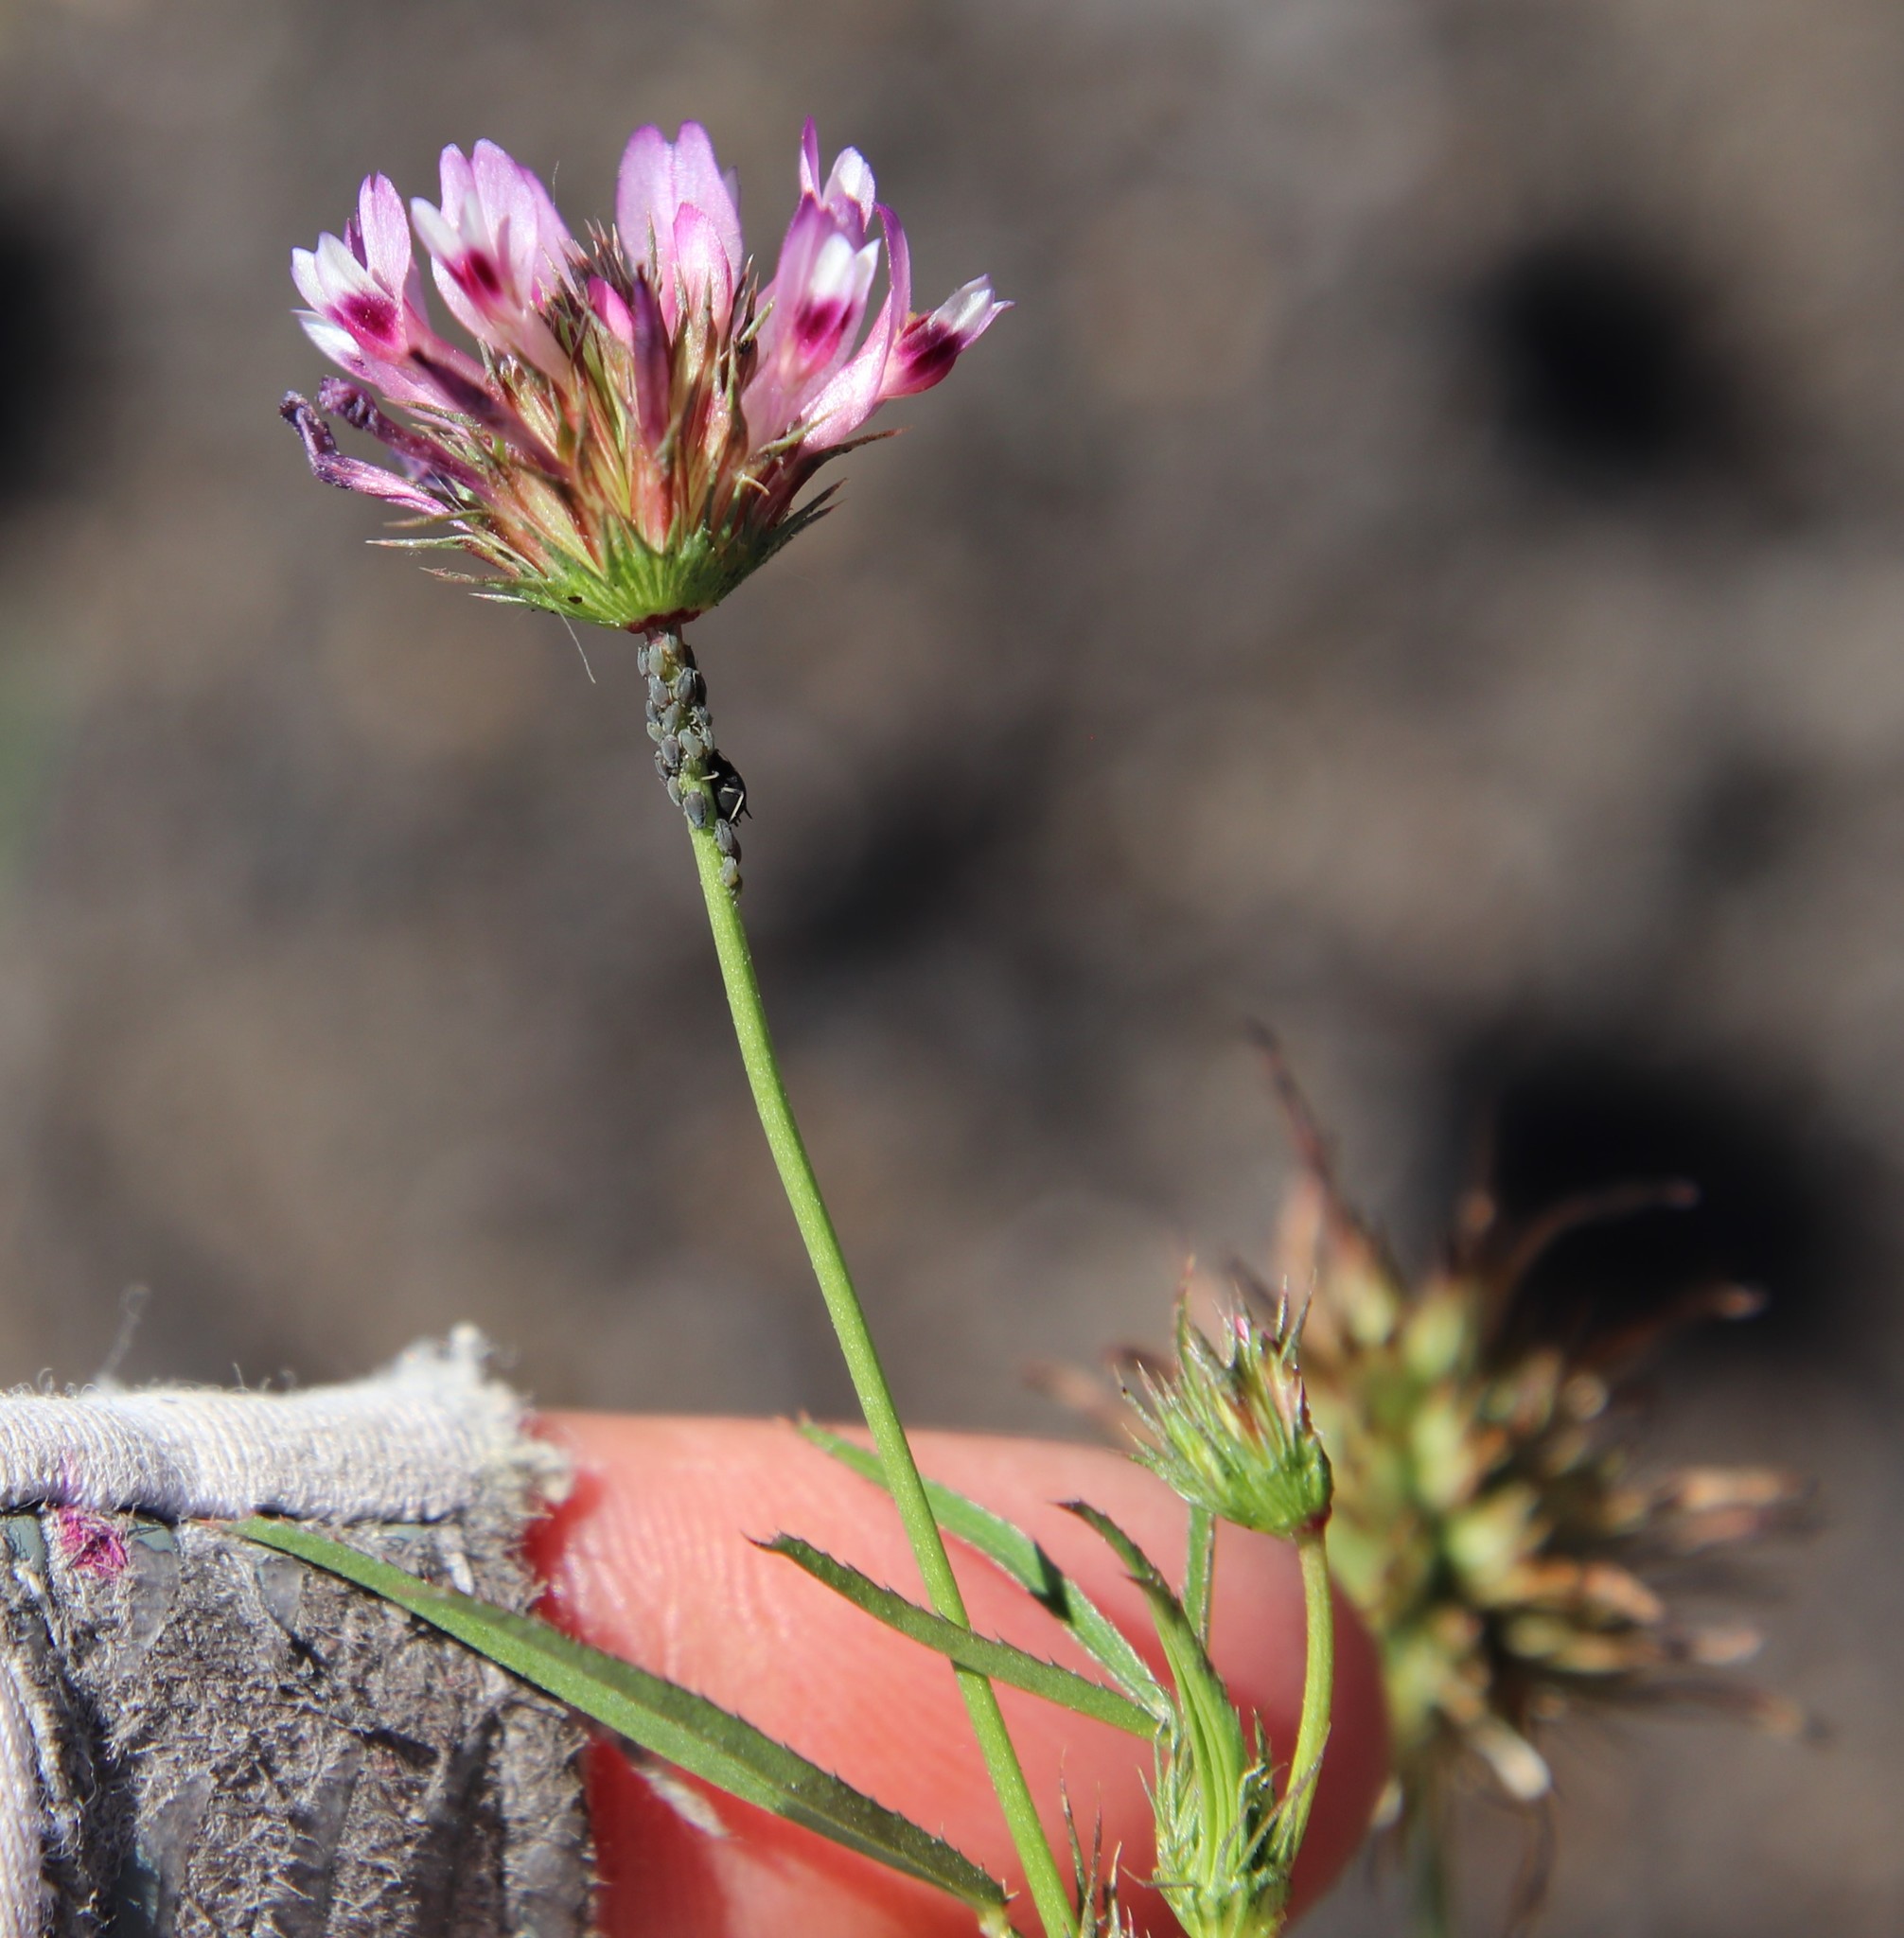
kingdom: Plantae
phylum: Tracheophyta
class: Magnoliopsida
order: Fabales
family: Fabaceae
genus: Trifolium
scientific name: Trifolium willdenovii
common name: Tomcat clover
